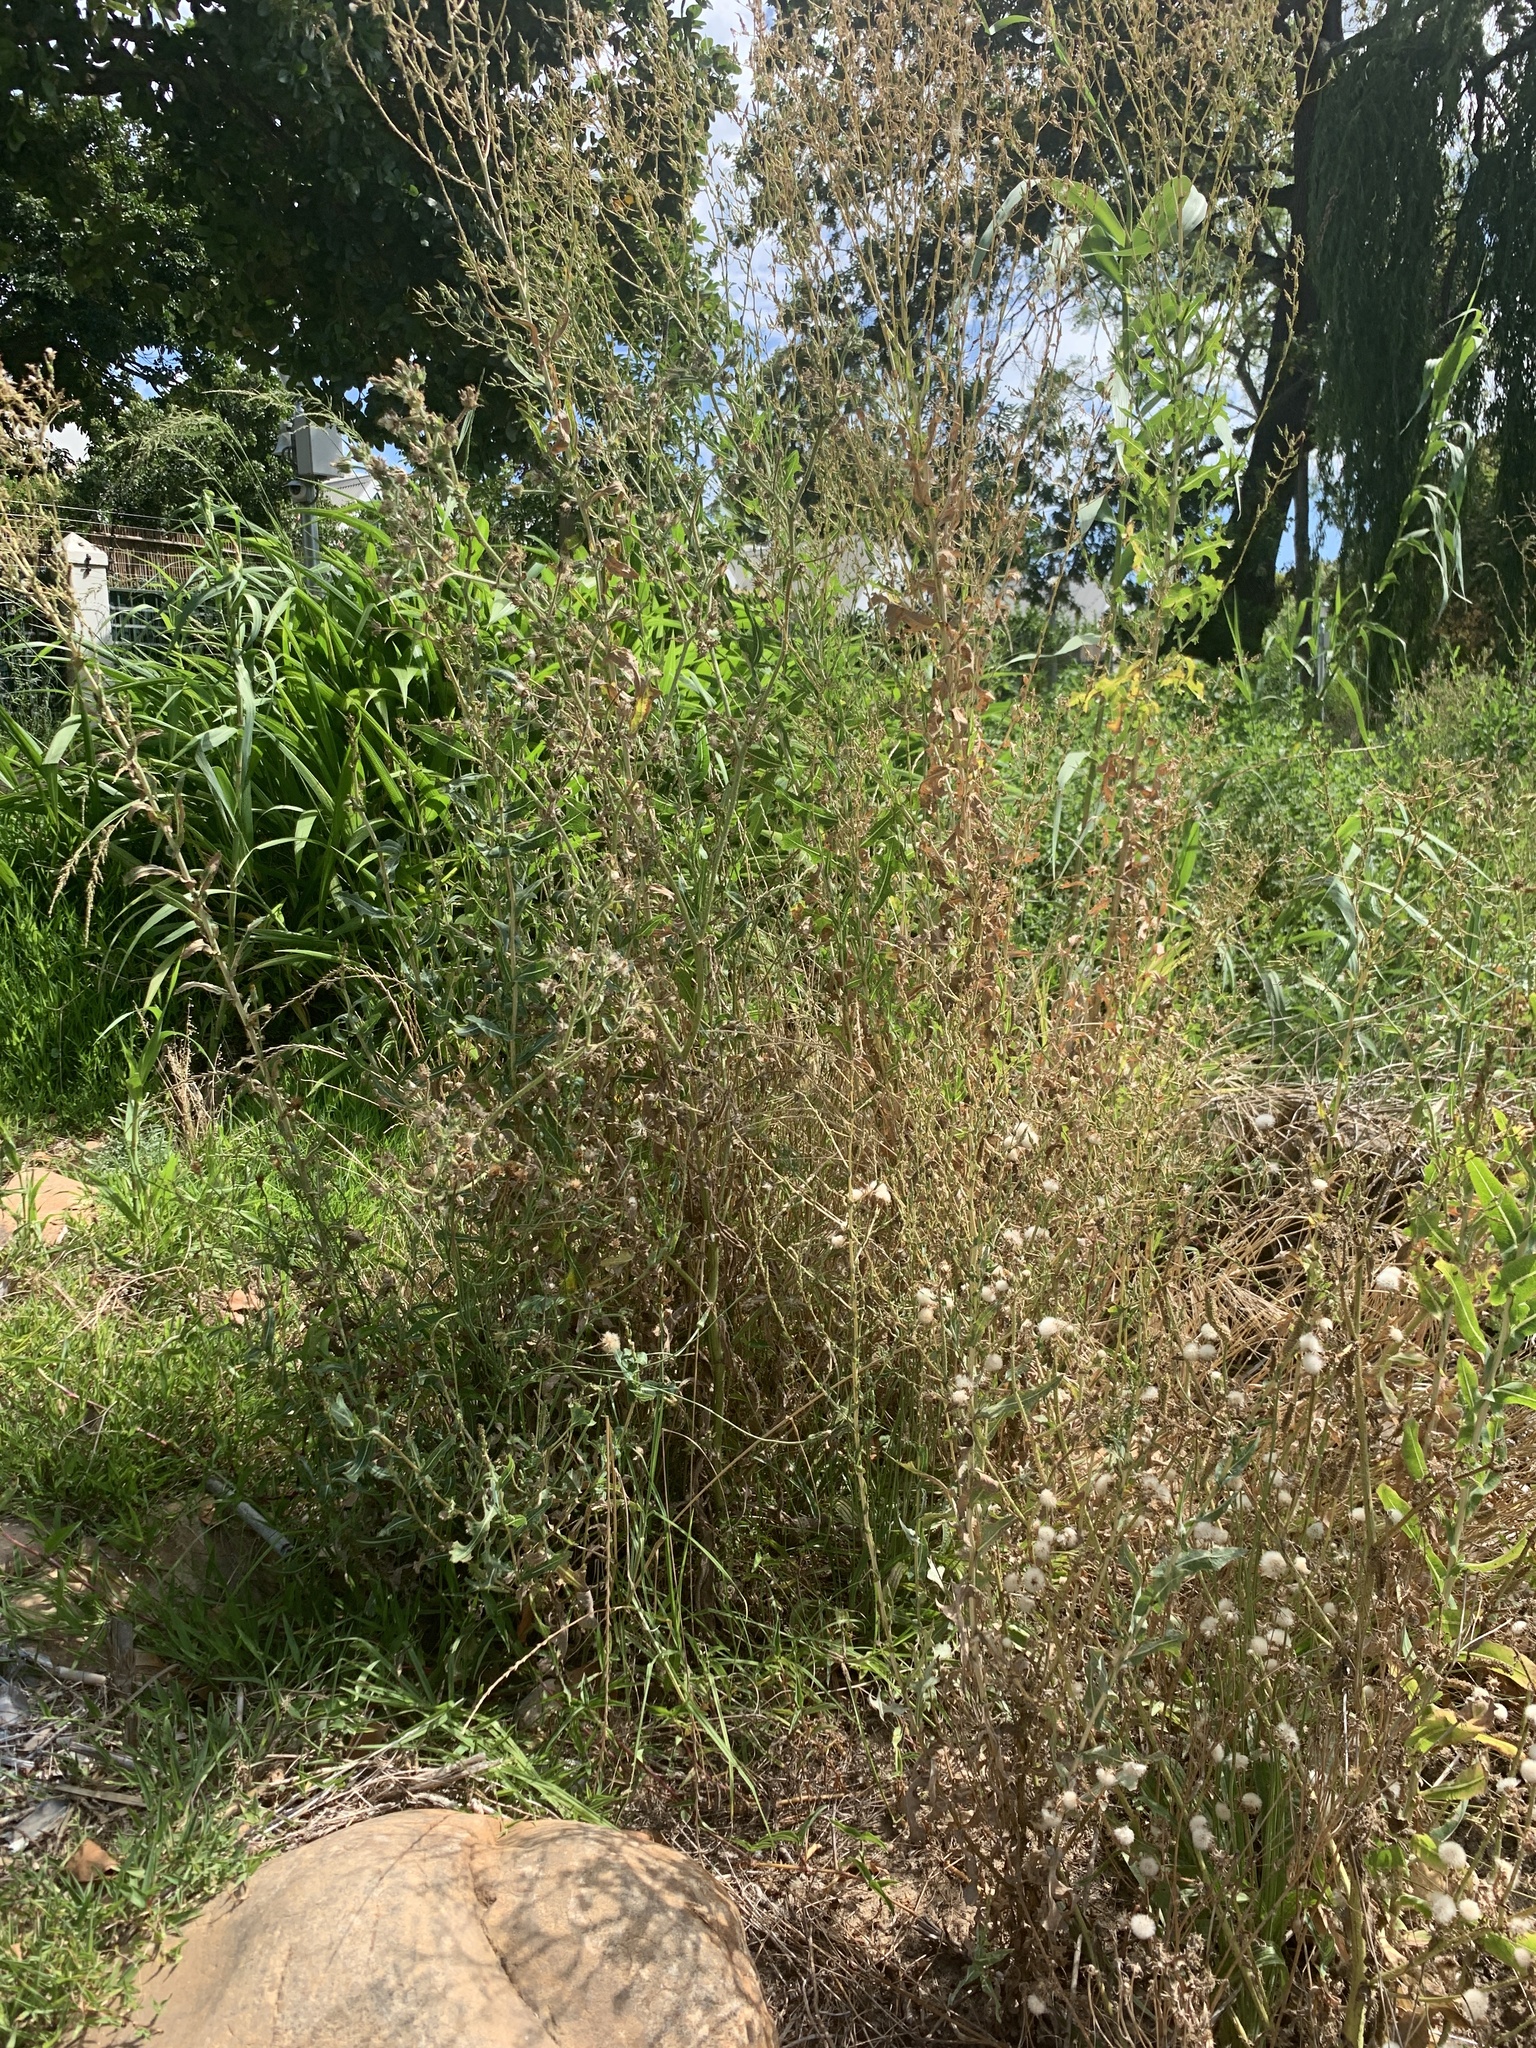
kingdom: Plantae
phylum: Tracheophyta
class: Magnoliopsida
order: Asterales
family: Asteraceae
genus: Lactuca
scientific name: Lactuca serriola
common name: Prickly lettuce
